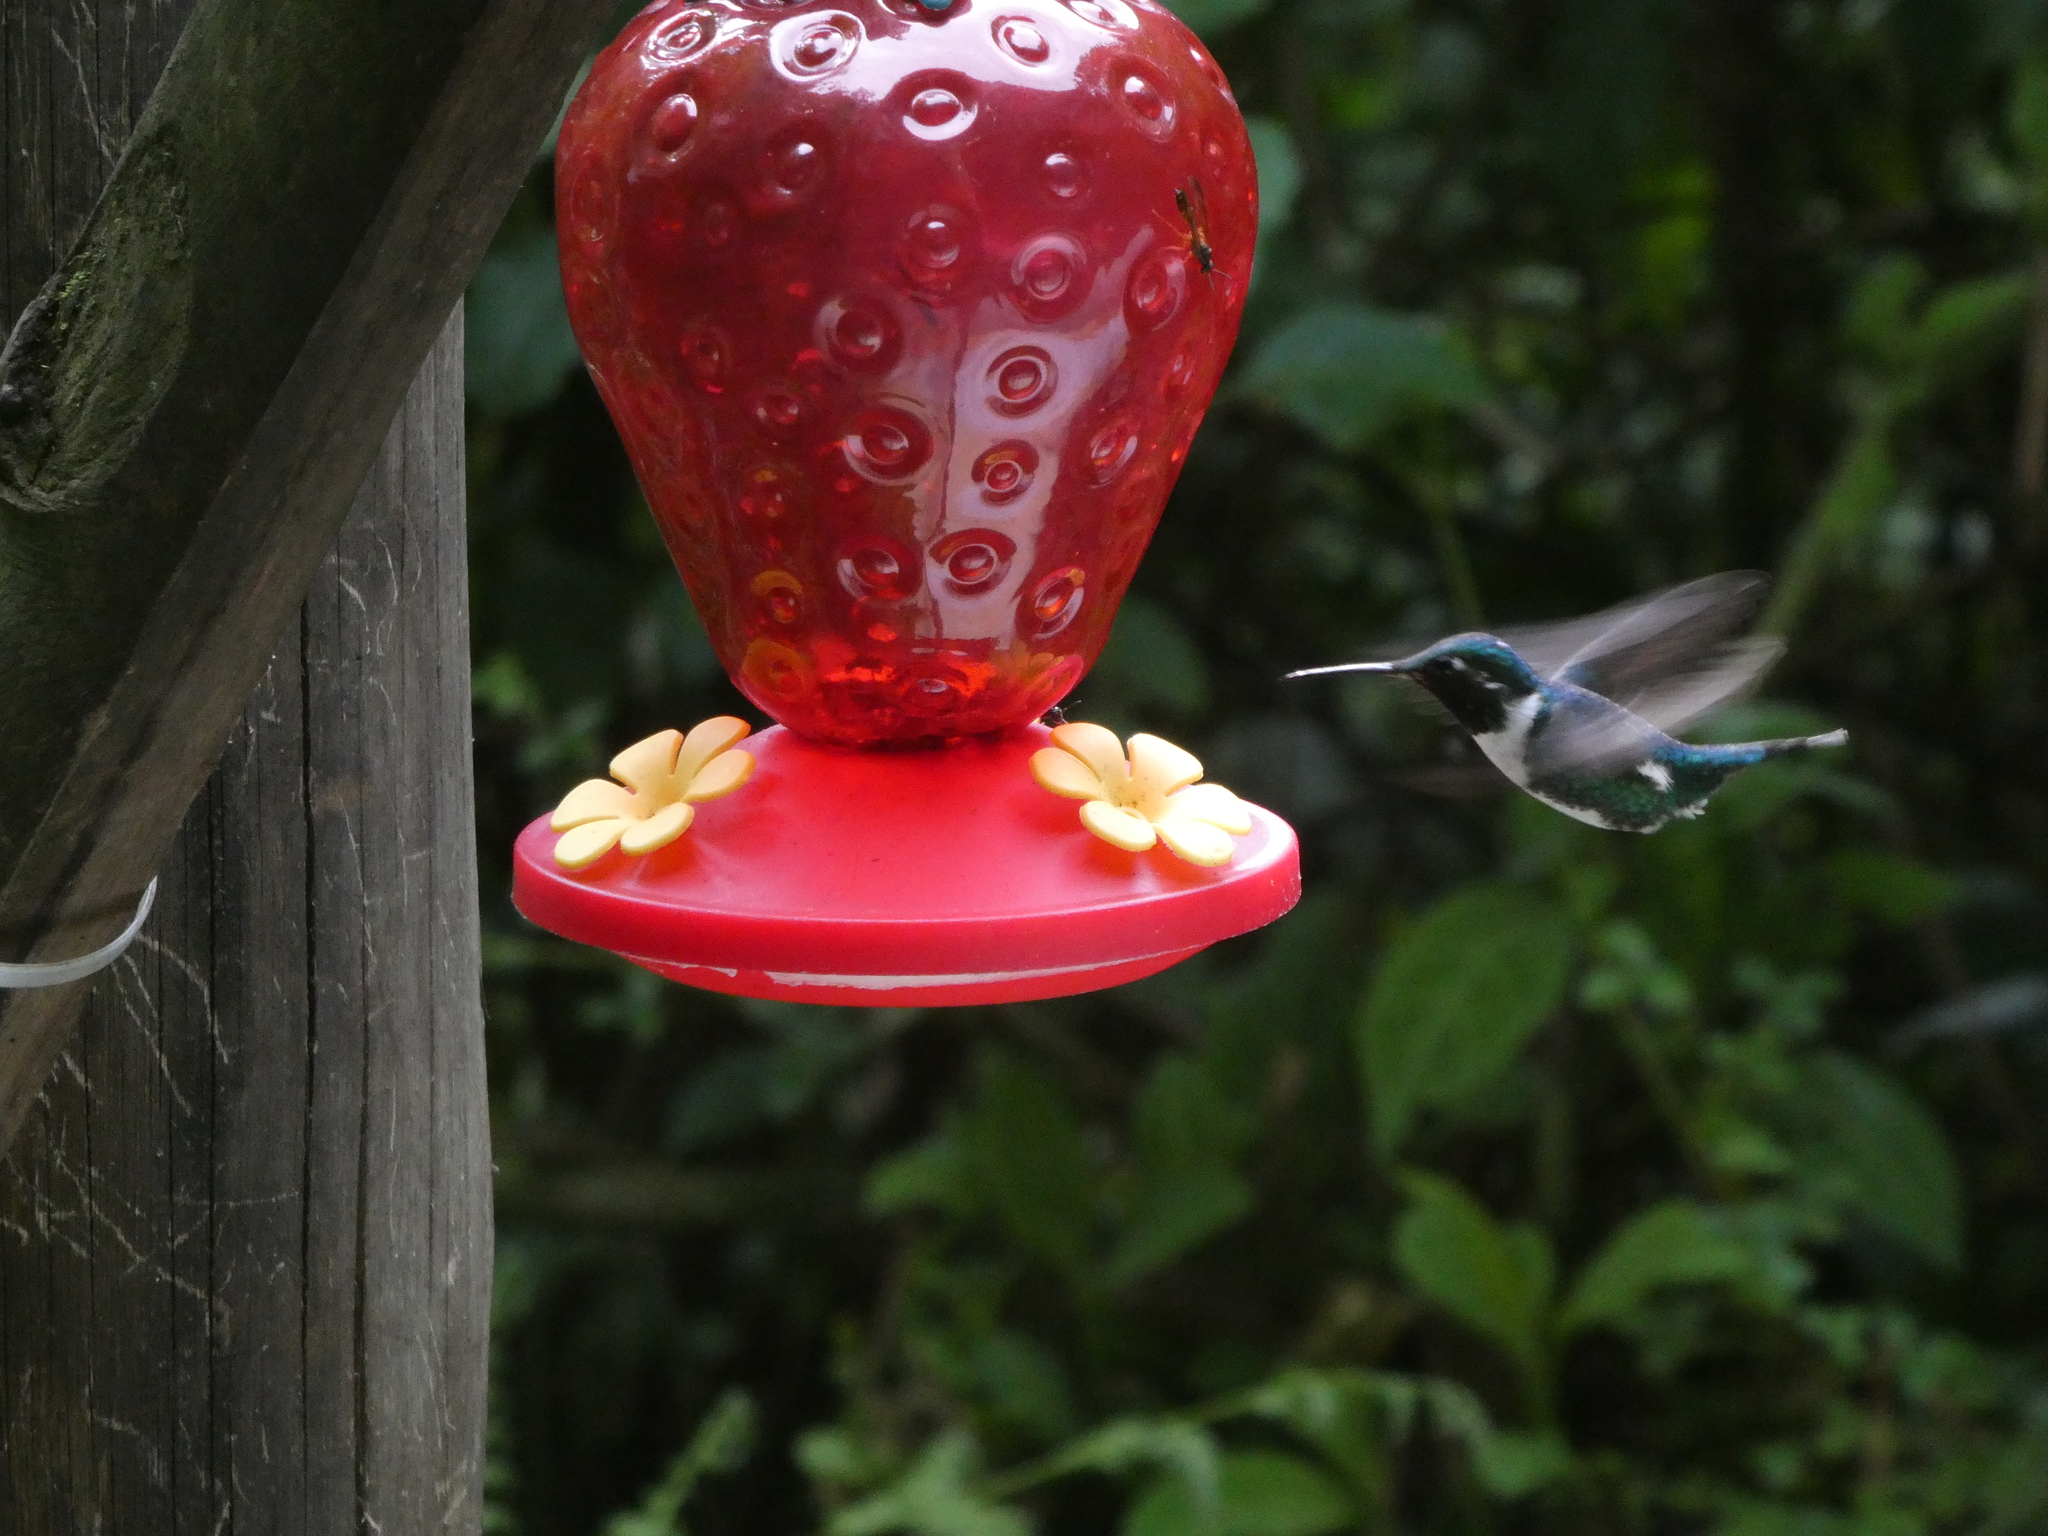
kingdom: Animalia
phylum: Chordata
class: Aves
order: Apodiformes
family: Trochilidae
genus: Chaetocercus
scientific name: Chaetocercus mulsant
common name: White-bellied woodstar
